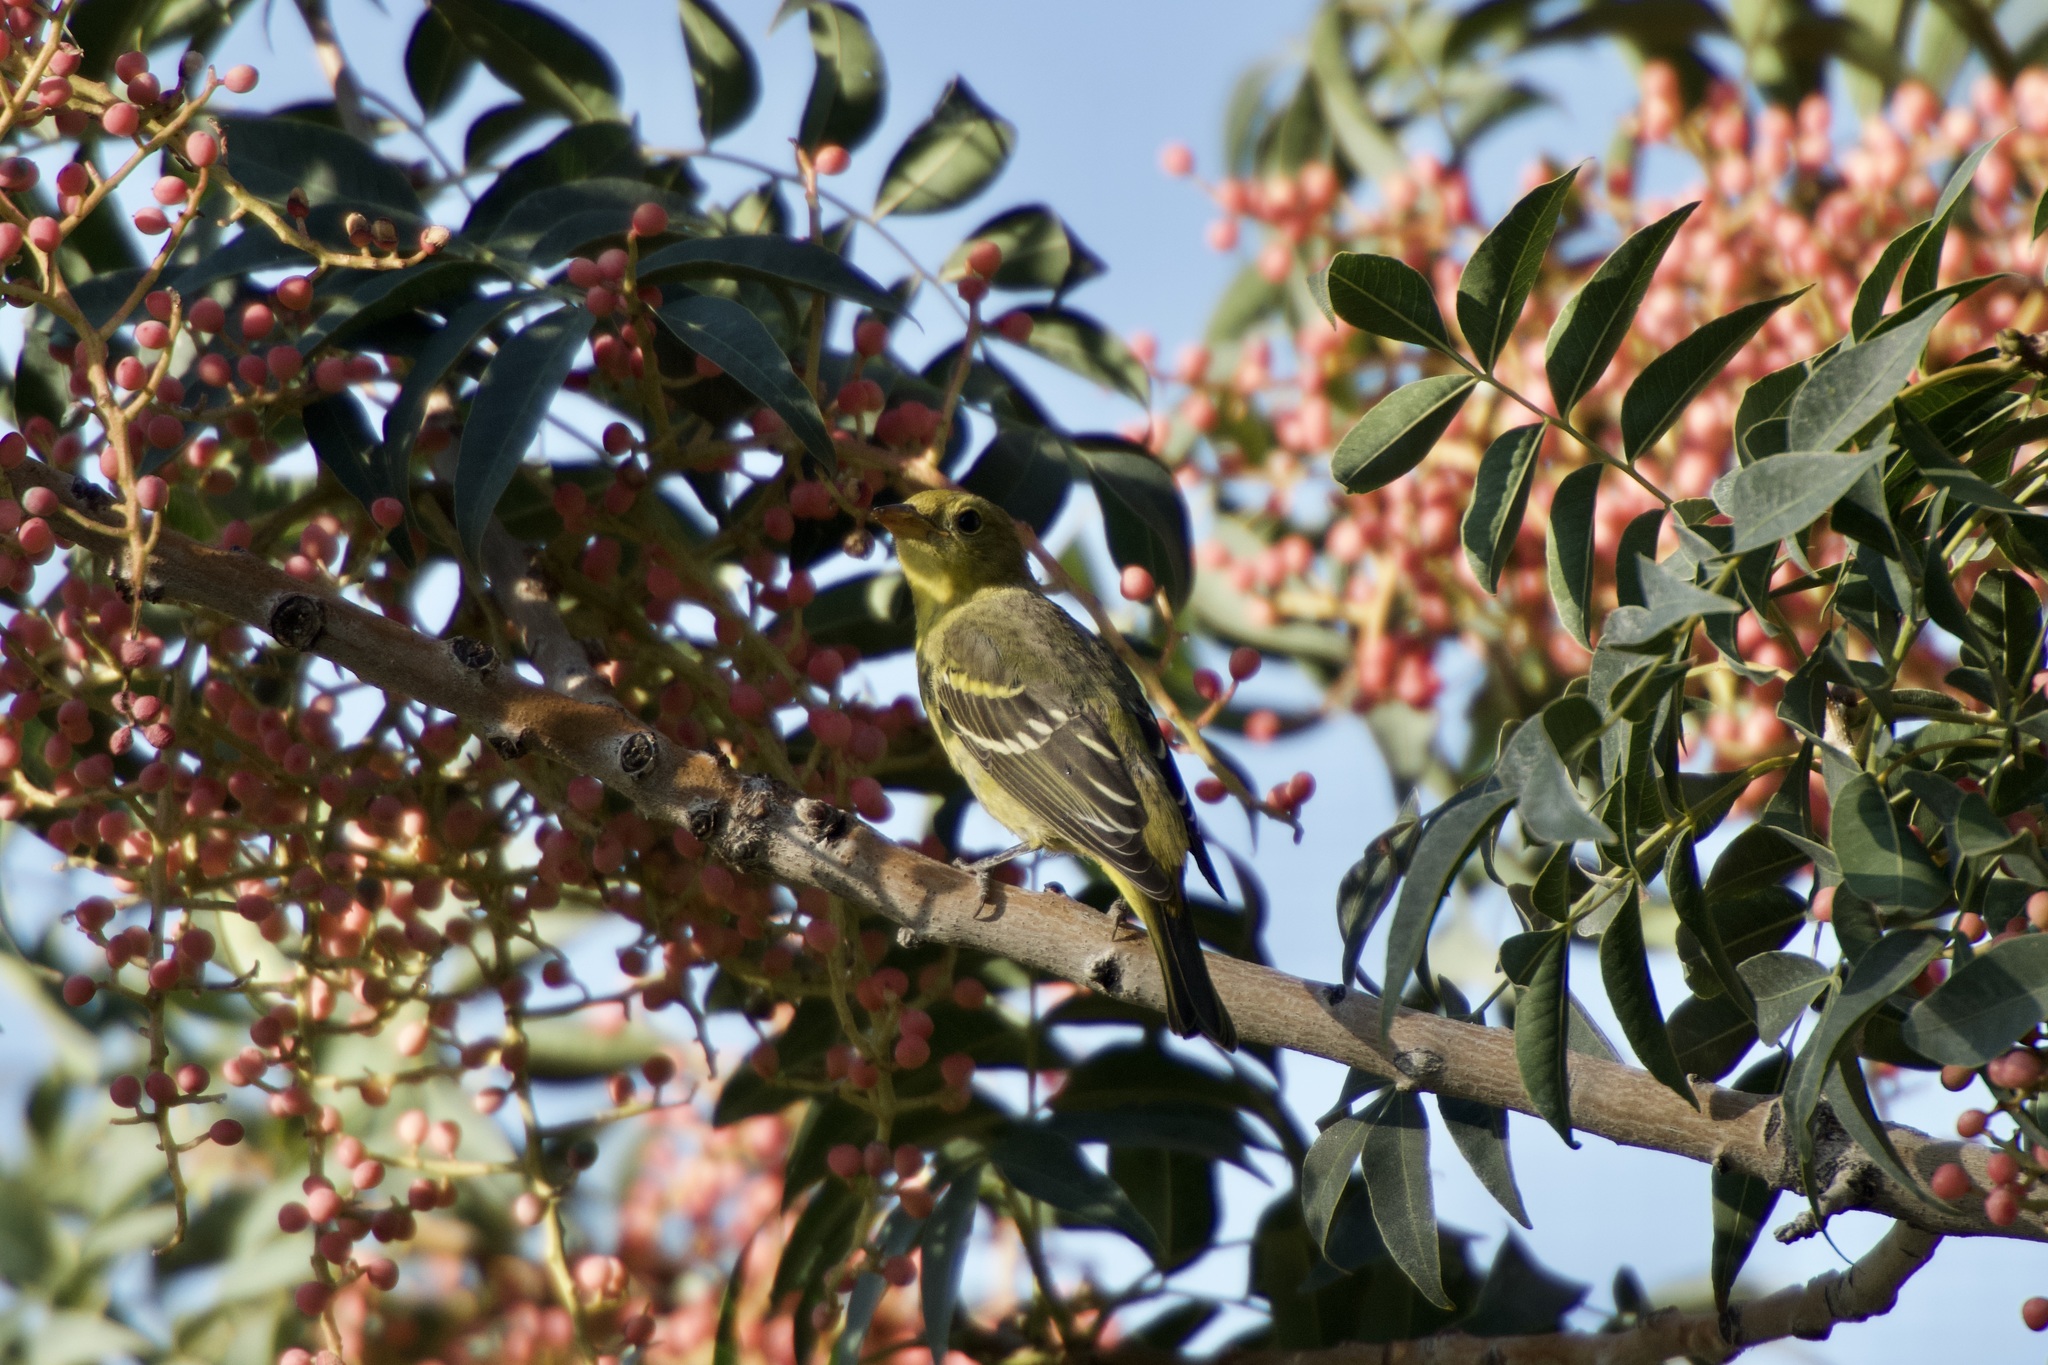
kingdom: Animalia
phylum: Chordata
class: Aves
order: Passeriformes
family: Cardinalidae
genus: Piranga
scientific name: Piranga ludoviciana
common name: Western tanager
